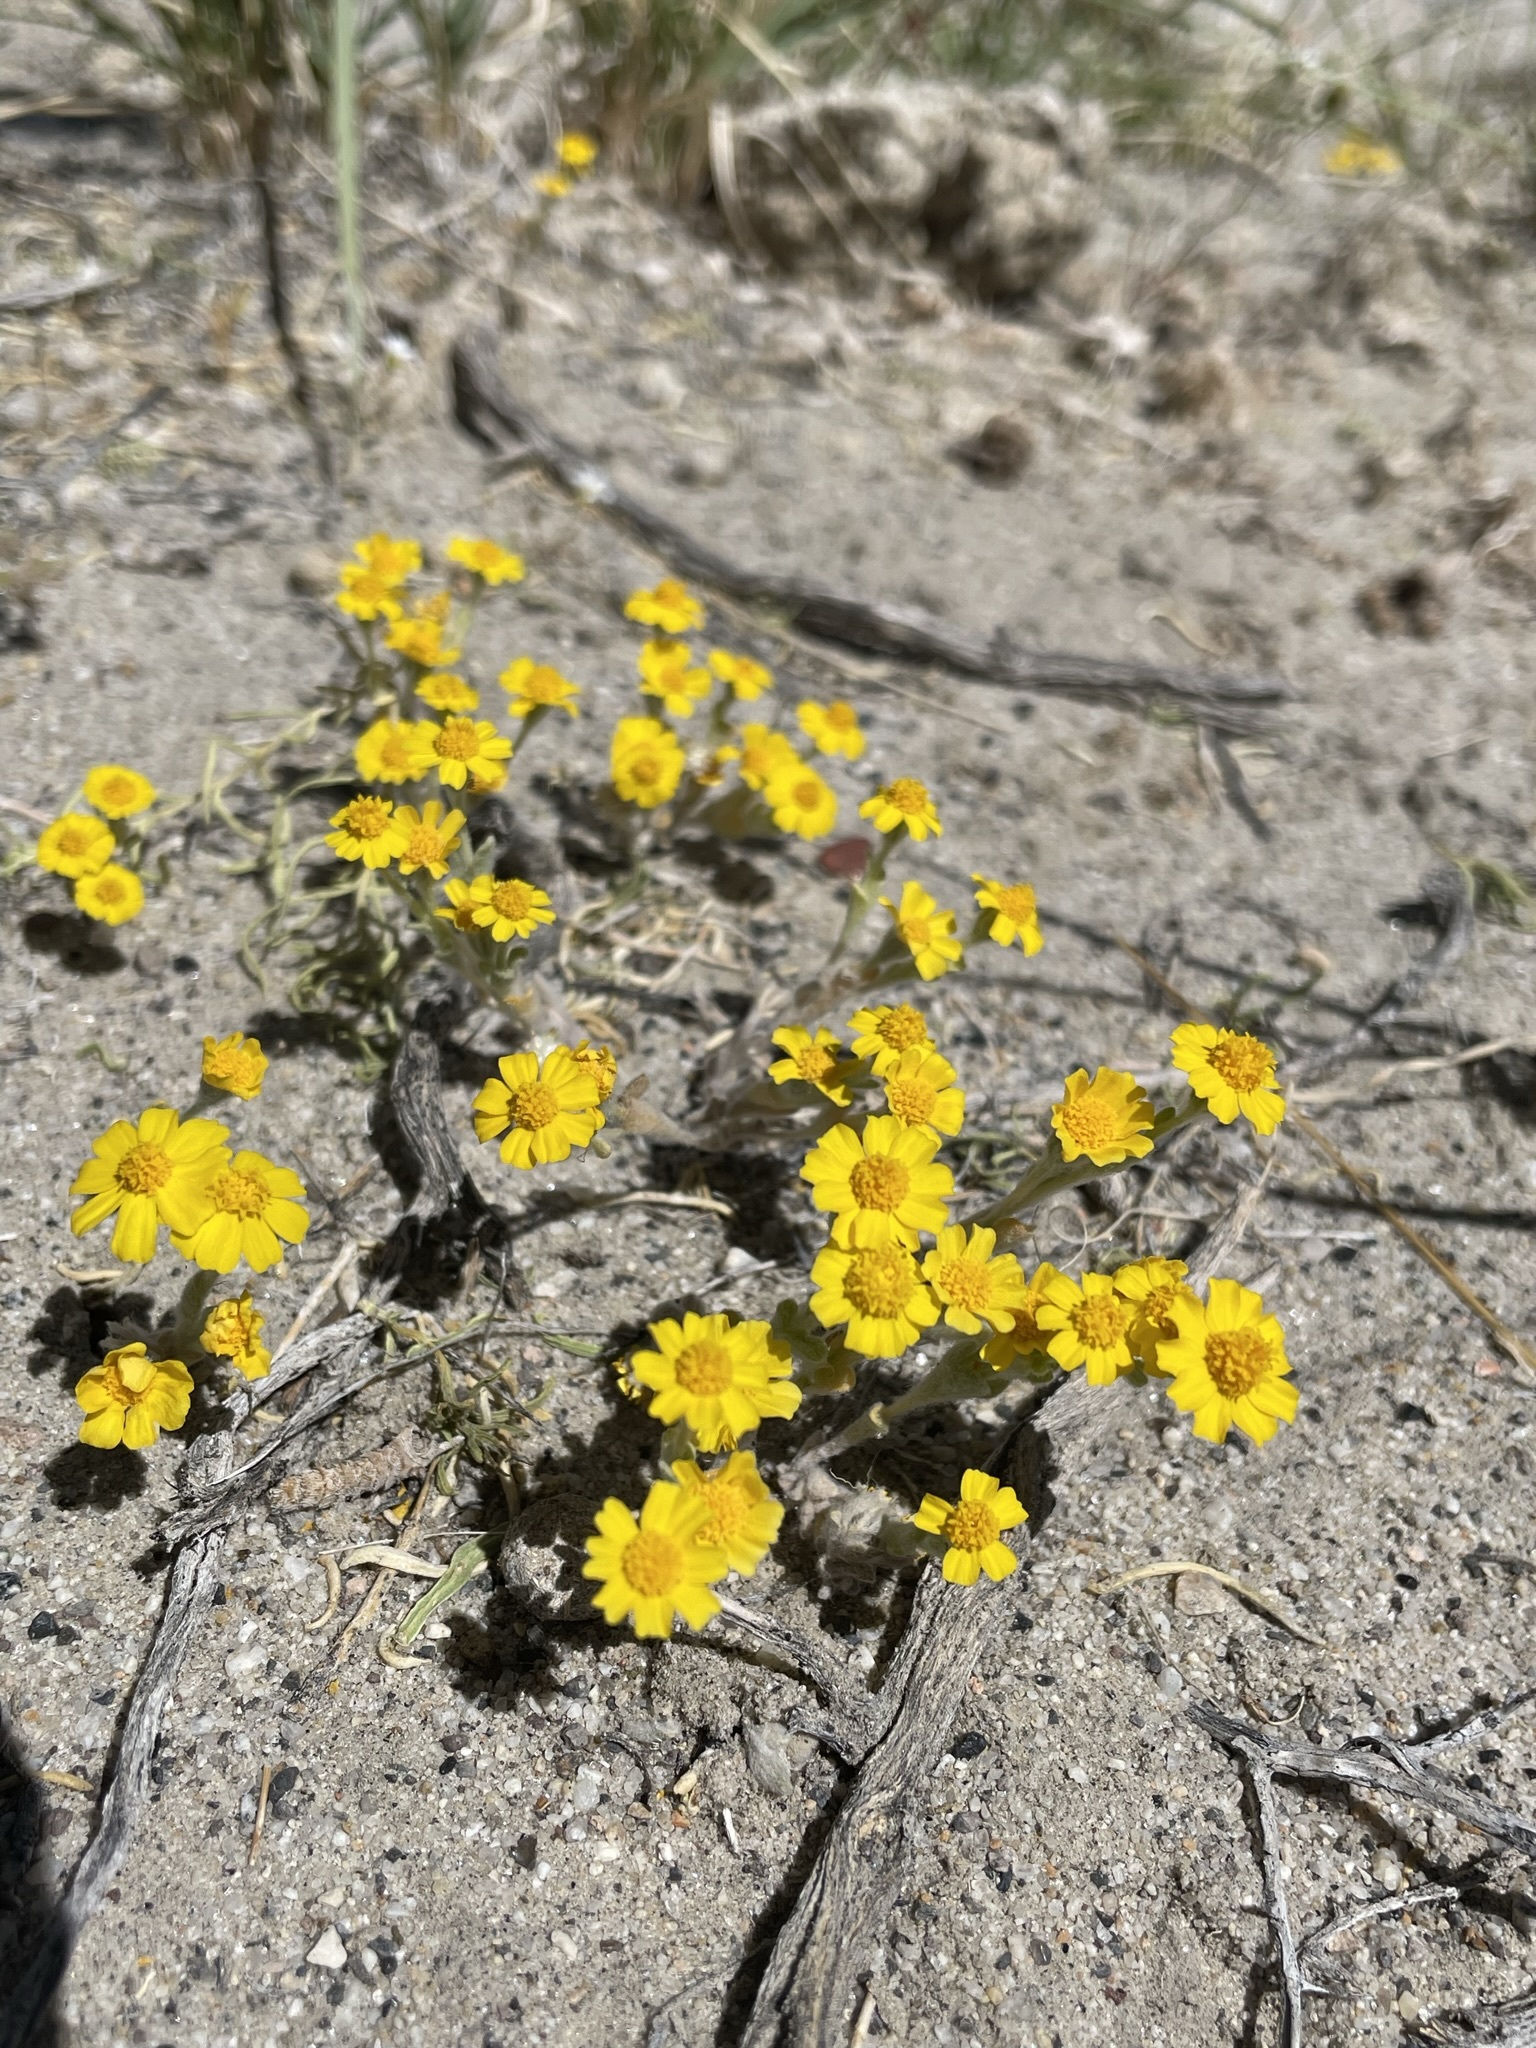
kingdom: Plantae
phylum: Tracheophyta
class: Magnoliopsida
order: Asterales
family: Asteraceae
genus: Eriophyllum
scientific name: Eriophyllum wallacei
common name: Wallace's woolly daisy
